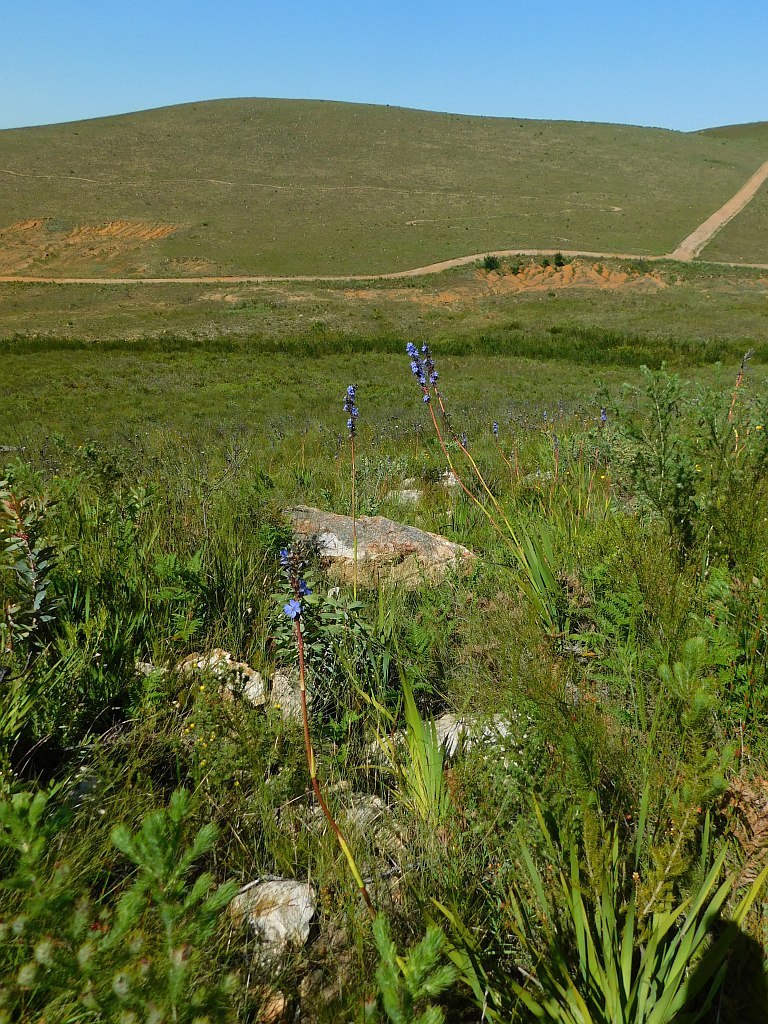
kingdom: Plantae
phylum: Tracheophyta
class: Liliopsida
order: Asparagales
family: Iridaceae
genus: Aristea
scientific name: Aristea capitata
